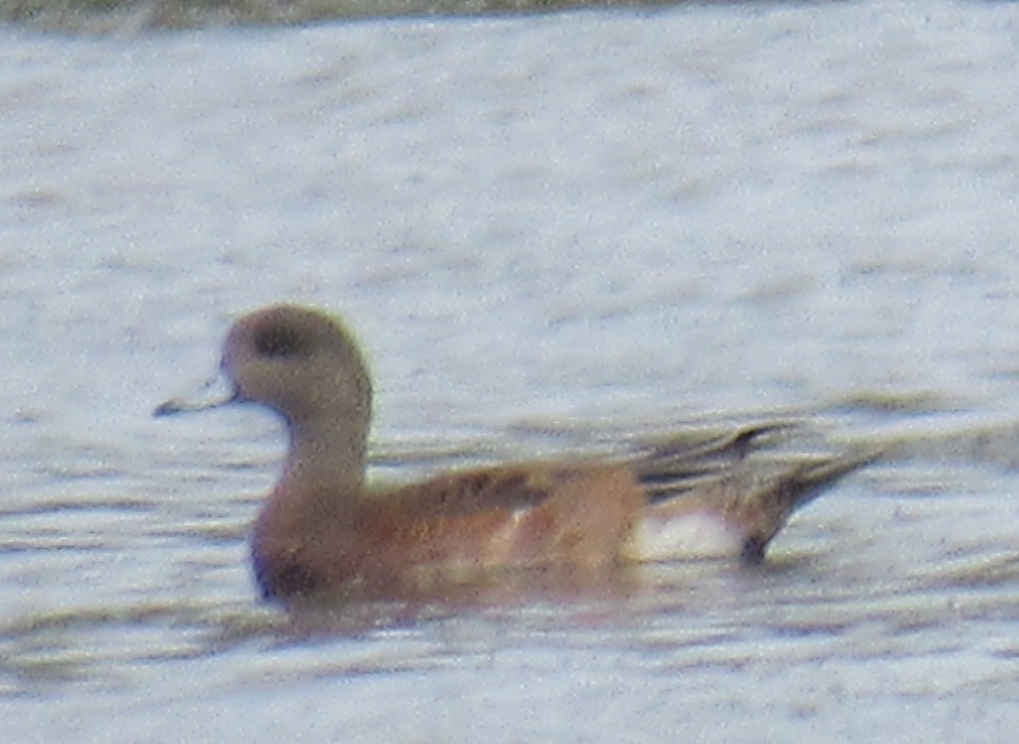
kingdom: Animalia
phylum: Chordata
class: Aves
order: Anseriformes
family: Anatidae
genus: Mareca
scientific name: Mareca americana
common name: American wigeon
